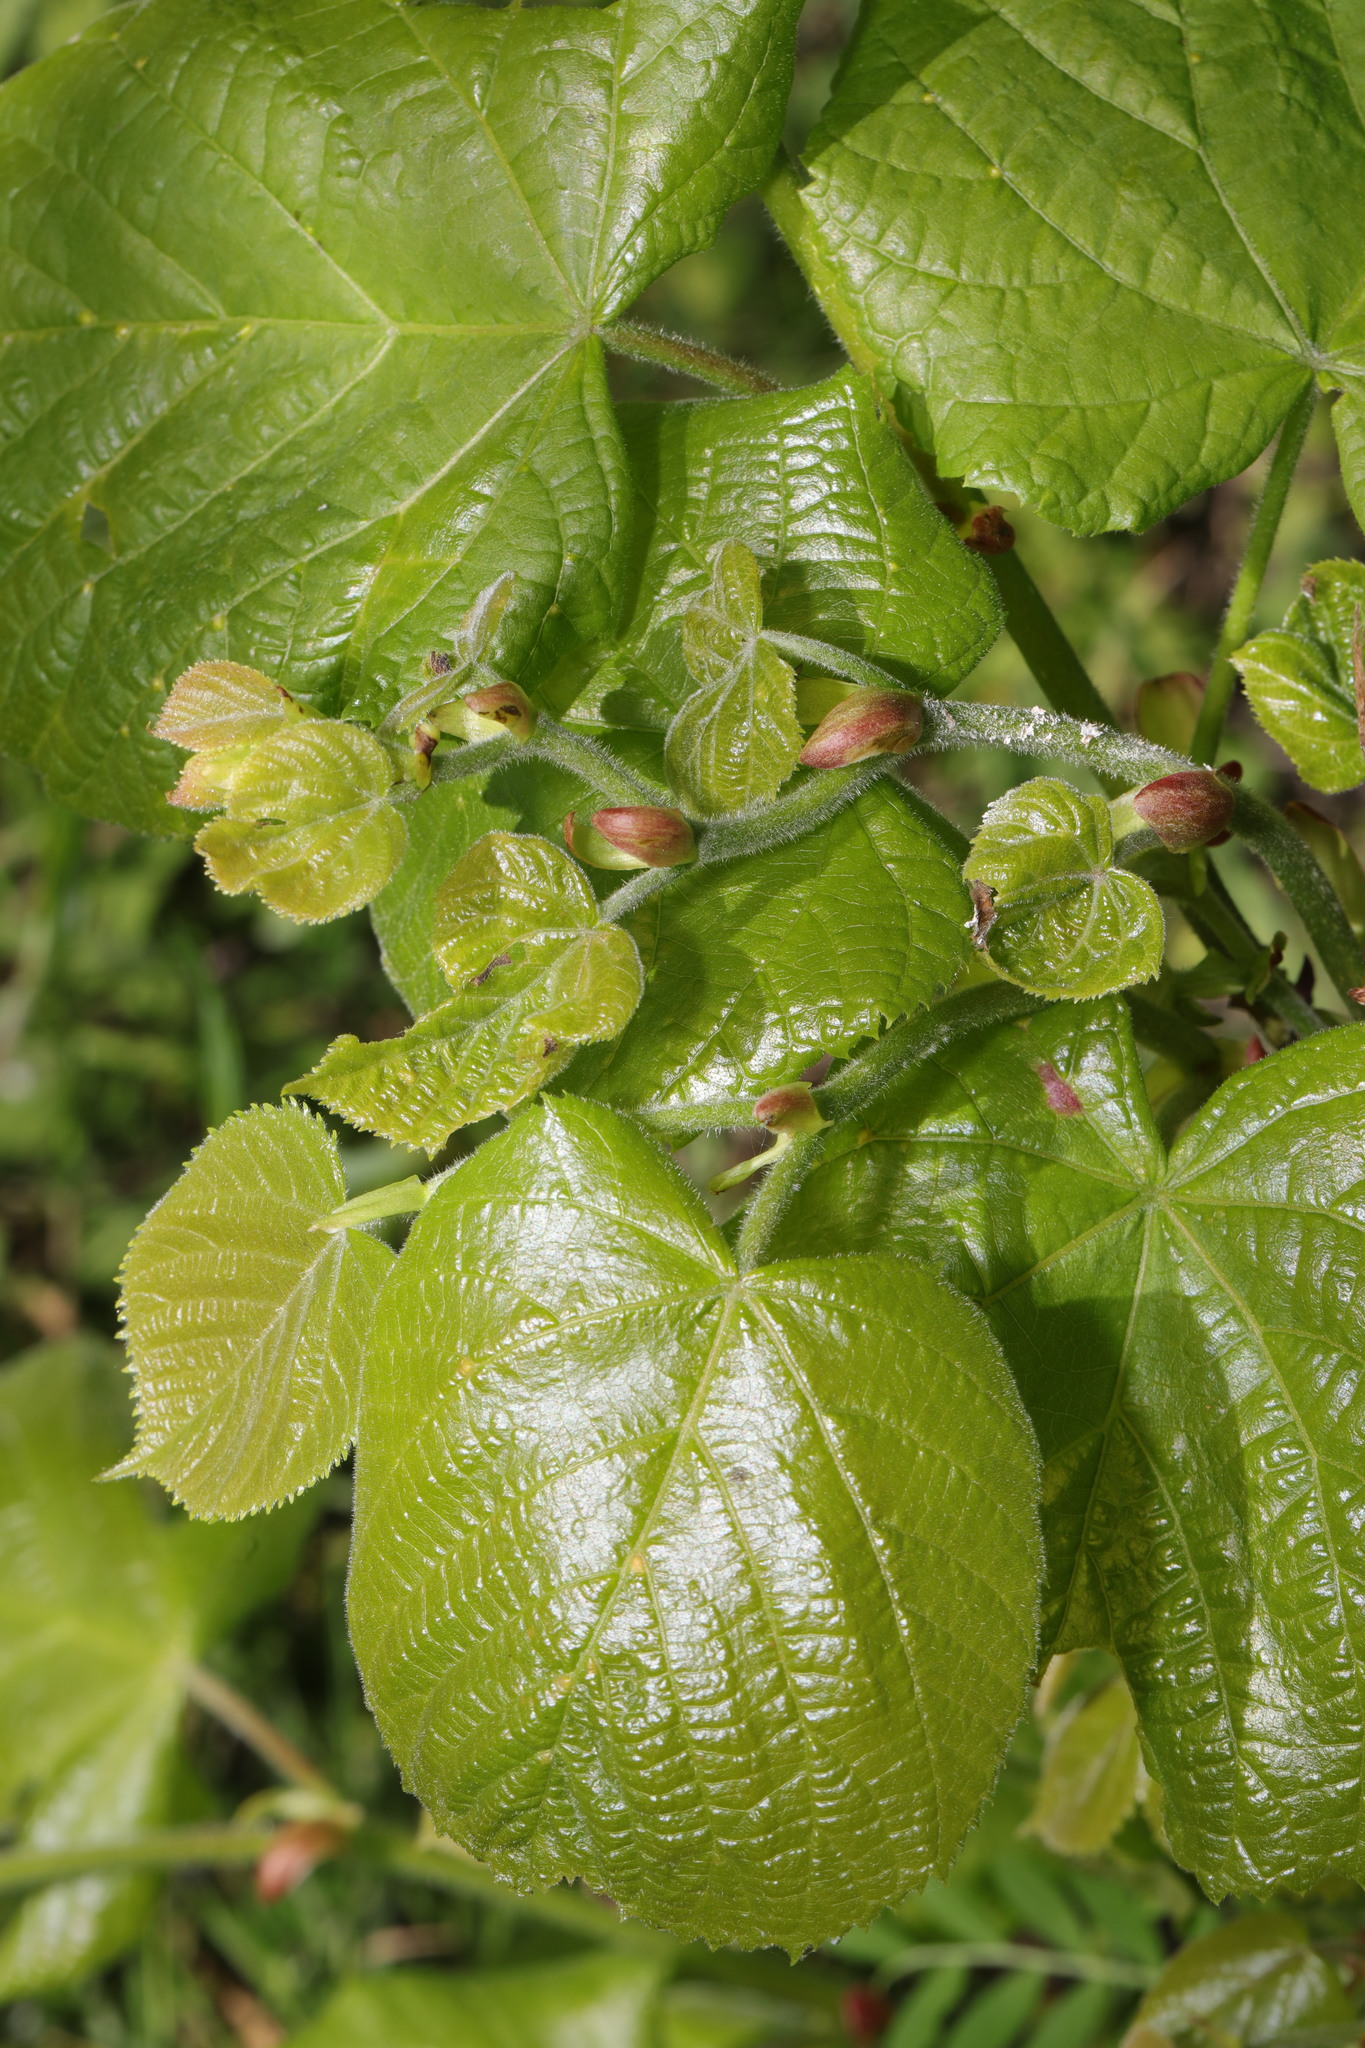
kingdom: Plantae
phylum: Tracheophyta
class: Magnoliopsida
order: Malvales
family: Malvaceae
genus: Tilia
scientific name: Tilia europaea
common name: European linden
